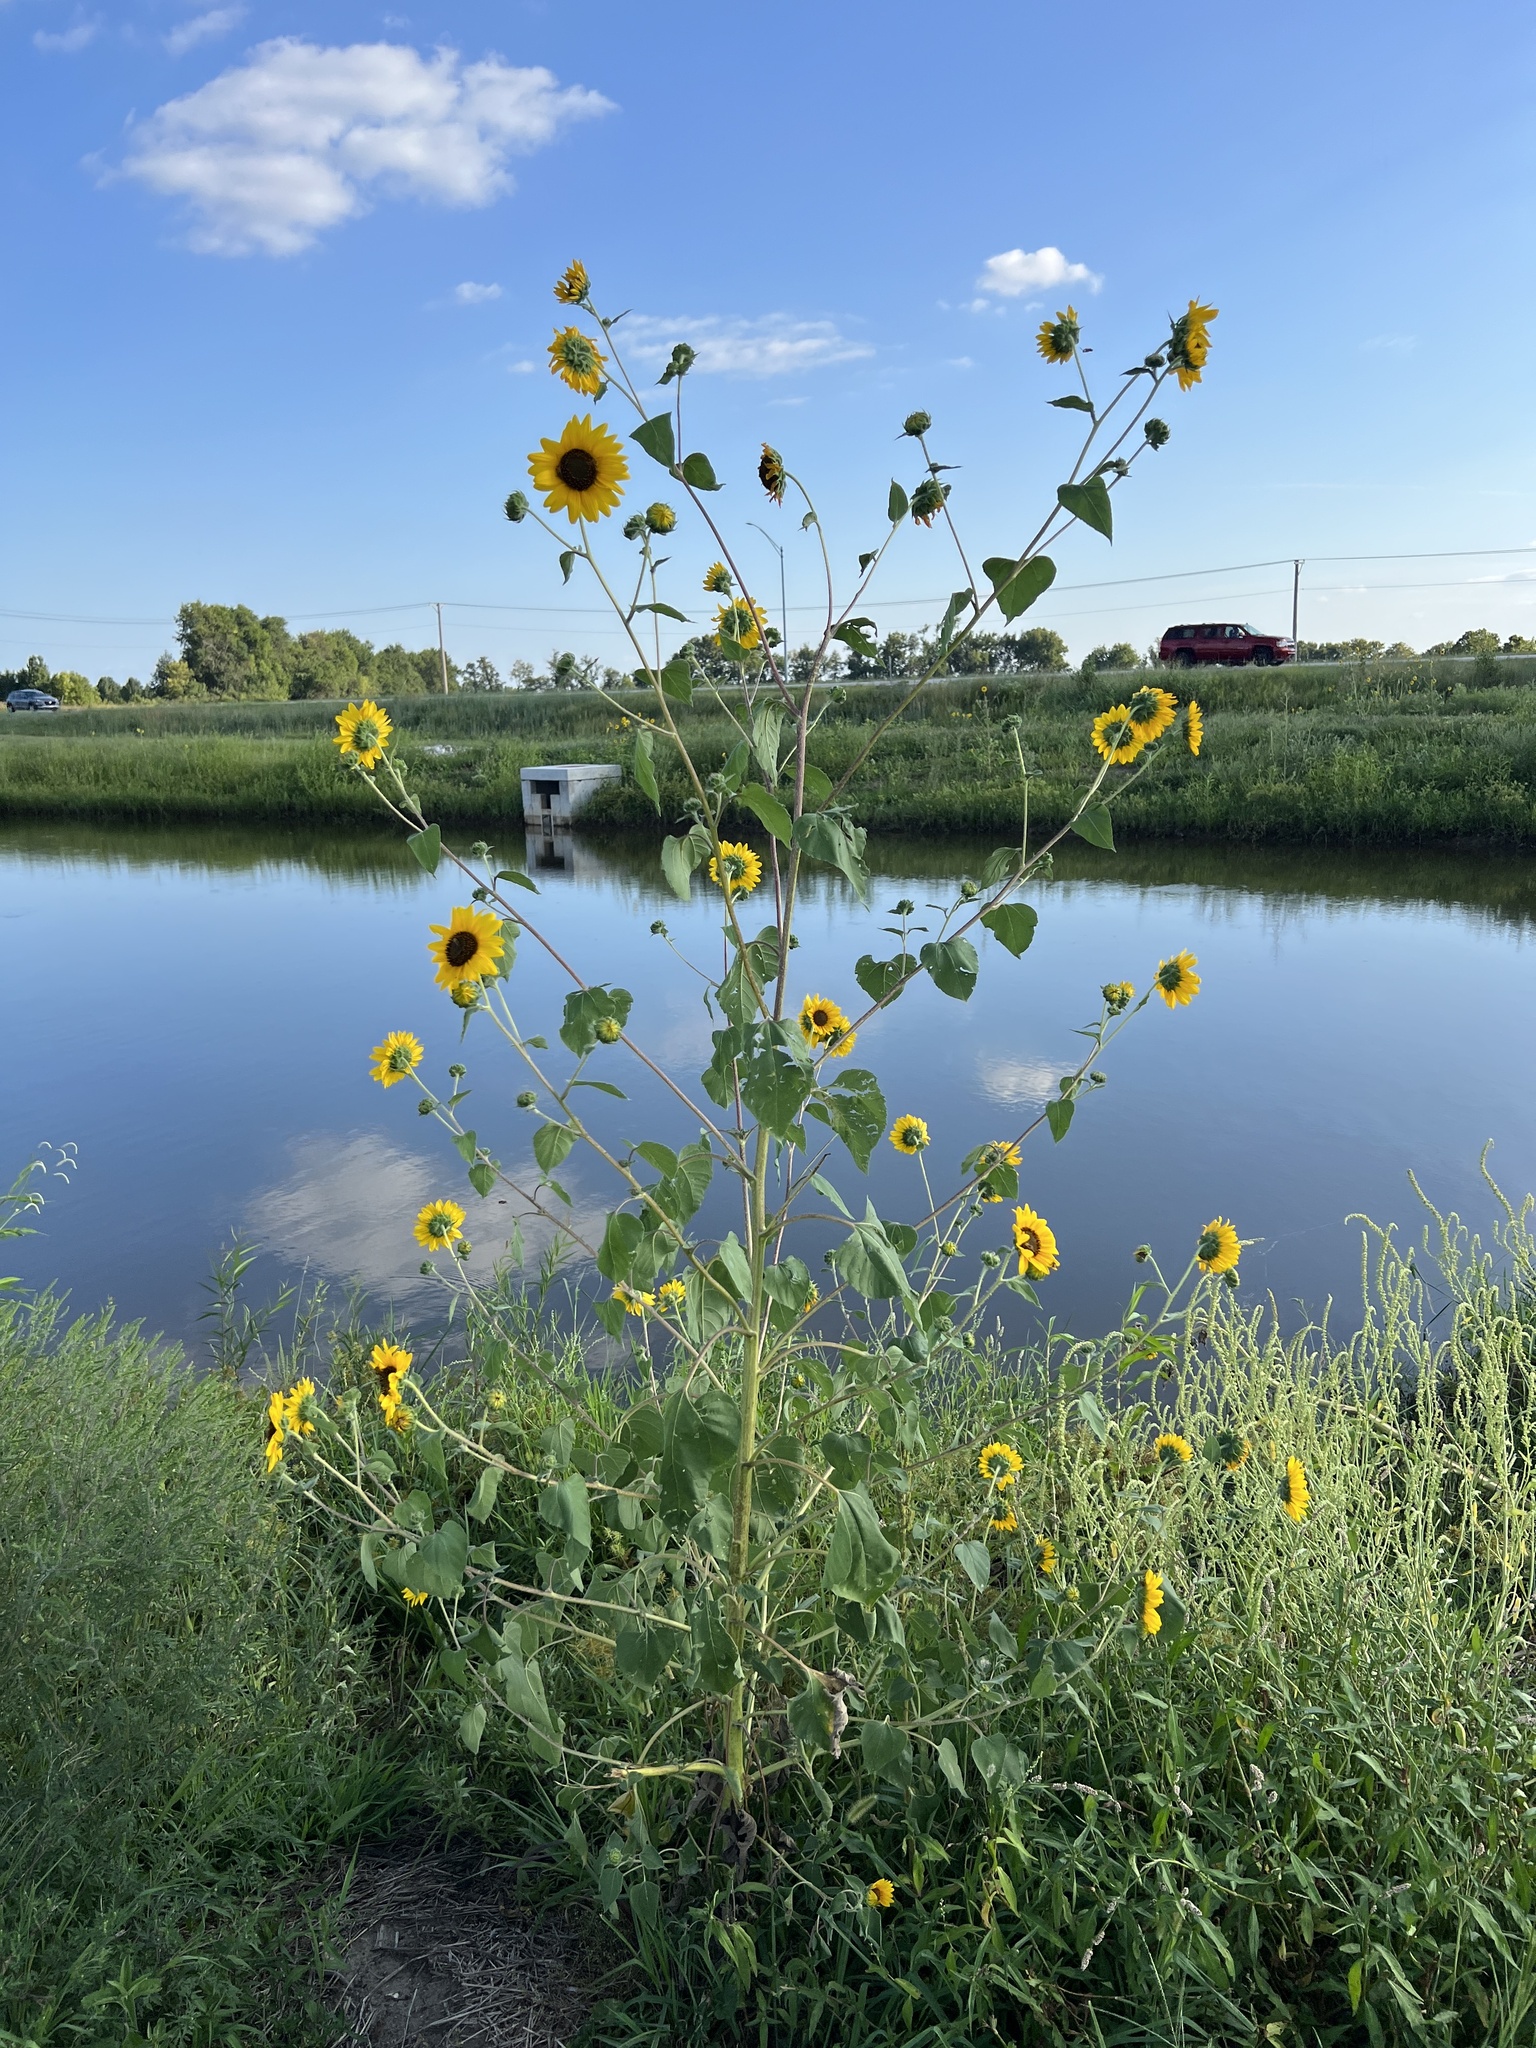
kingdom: Plantae
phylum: Tracheophyta
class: Magnoliopsida
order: Asterales
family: Asteraceae
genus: Helianthus
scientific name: Helianthus annuus
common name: Sunflower
